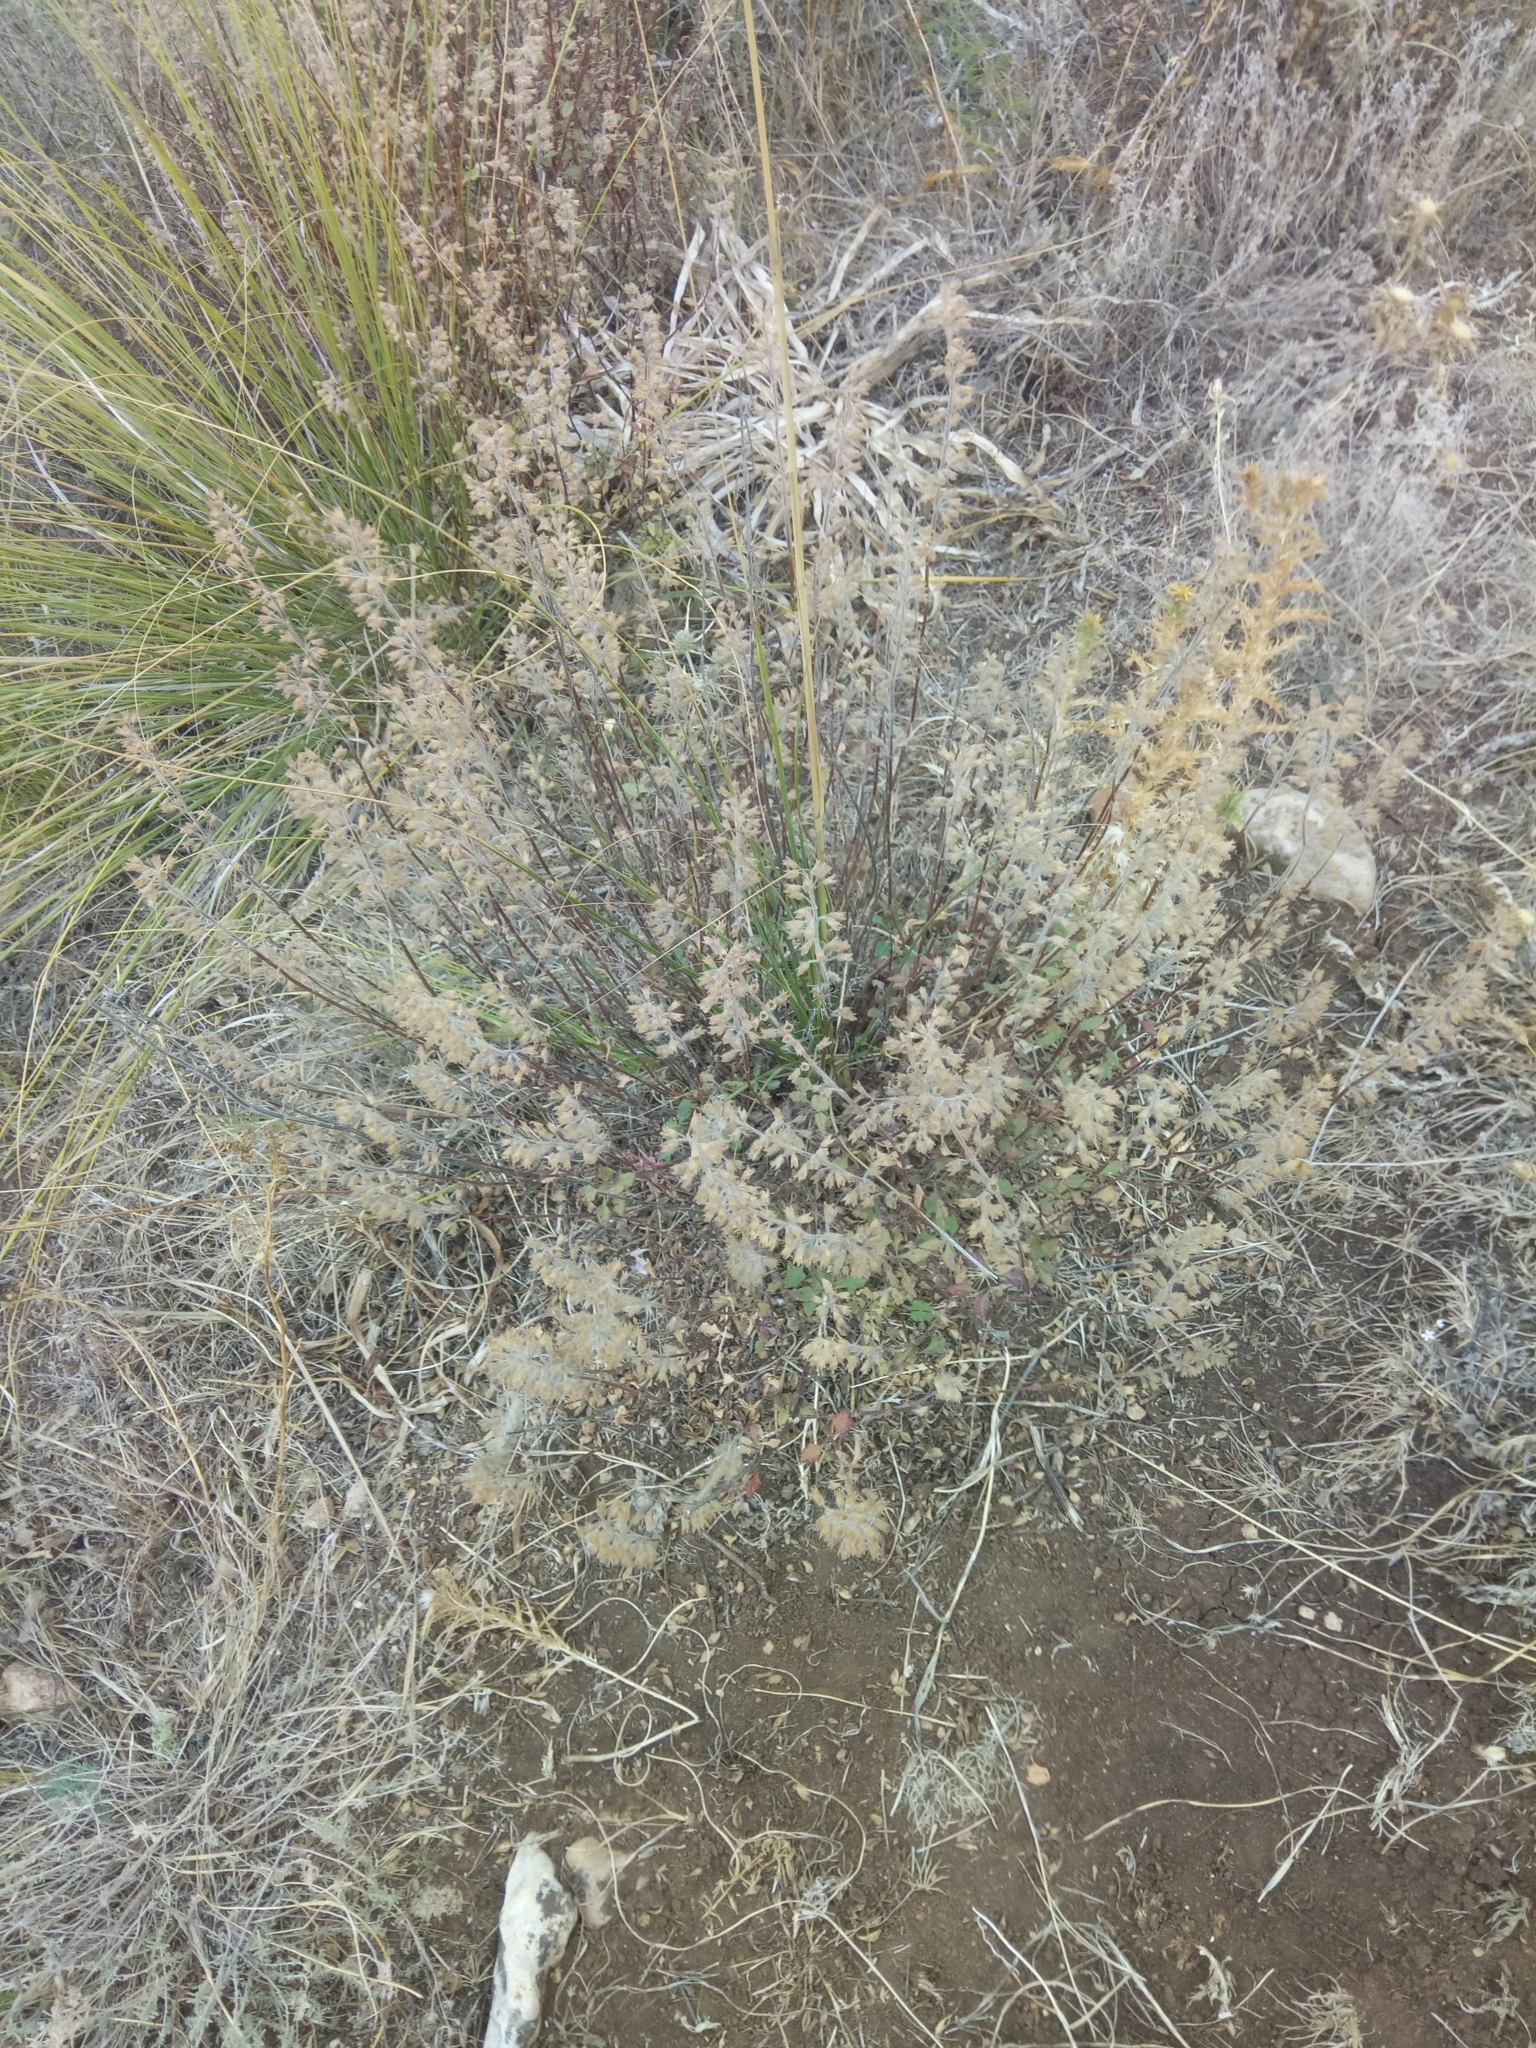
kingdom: Plantae
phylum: Tracheophyta
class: Magnoliopsida
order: Lamiales
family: Lamiaceae
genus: Teucrium
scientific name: Teucrium flavum
